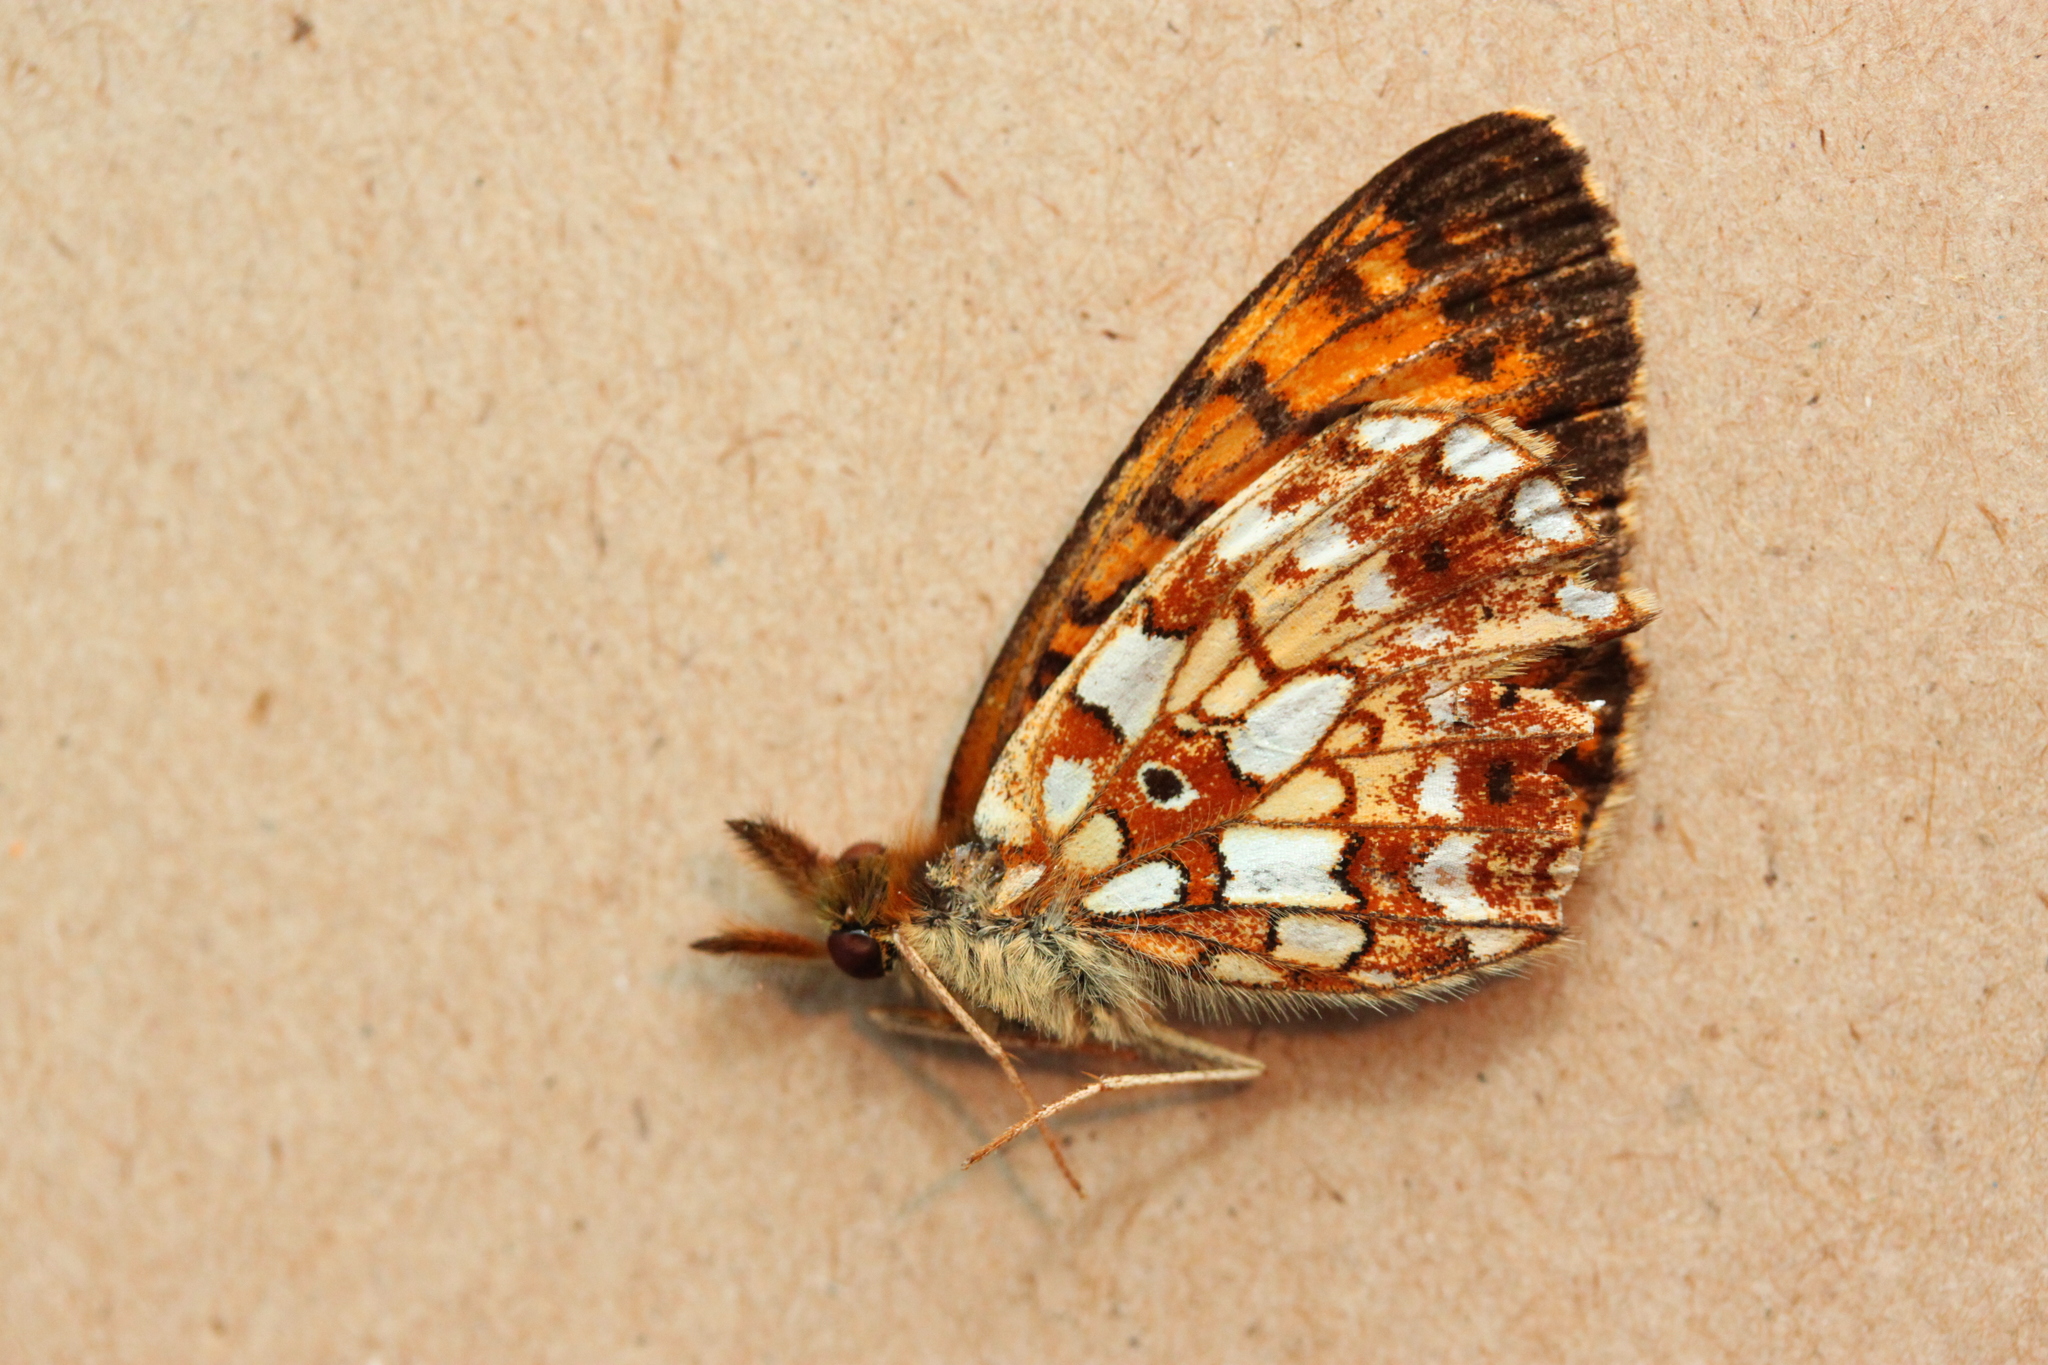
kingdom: Animalia
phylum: Arthropoda
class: Insecta
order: Lepidoptera
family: Nymphalidae
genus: Boloria
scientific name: Boloria
